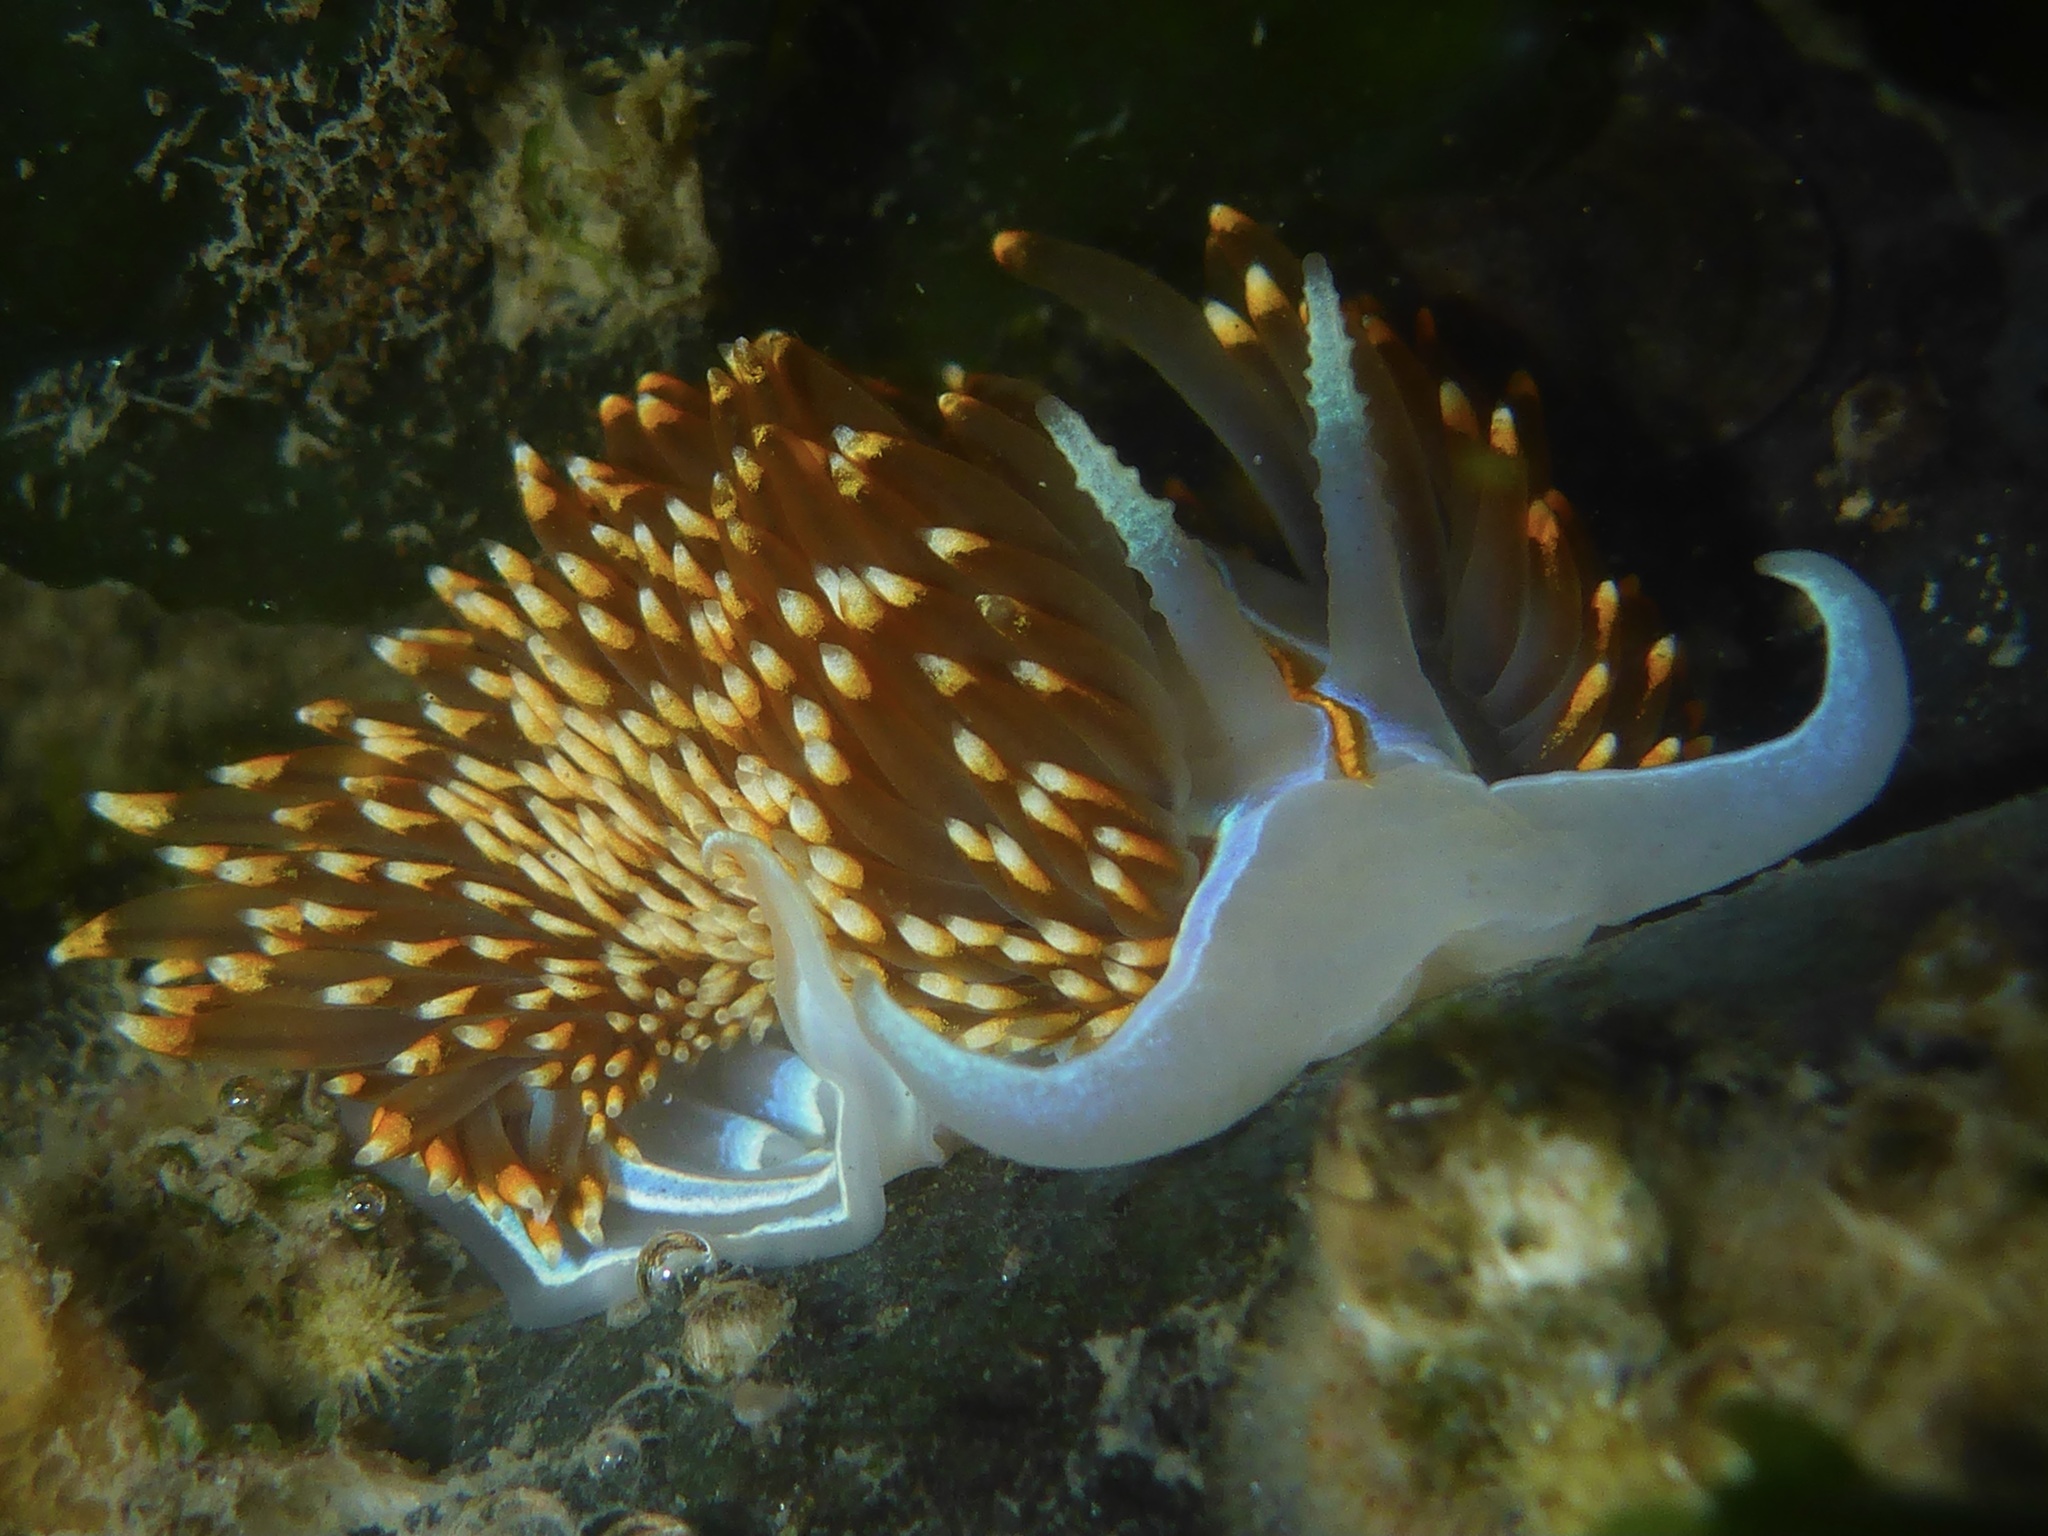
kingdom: Animalia
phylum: Mollusca
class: Gastropoda
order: Nudibranchia
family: Myrrhinidae
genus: Hermissenda
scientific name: Hermissenda opalescens
